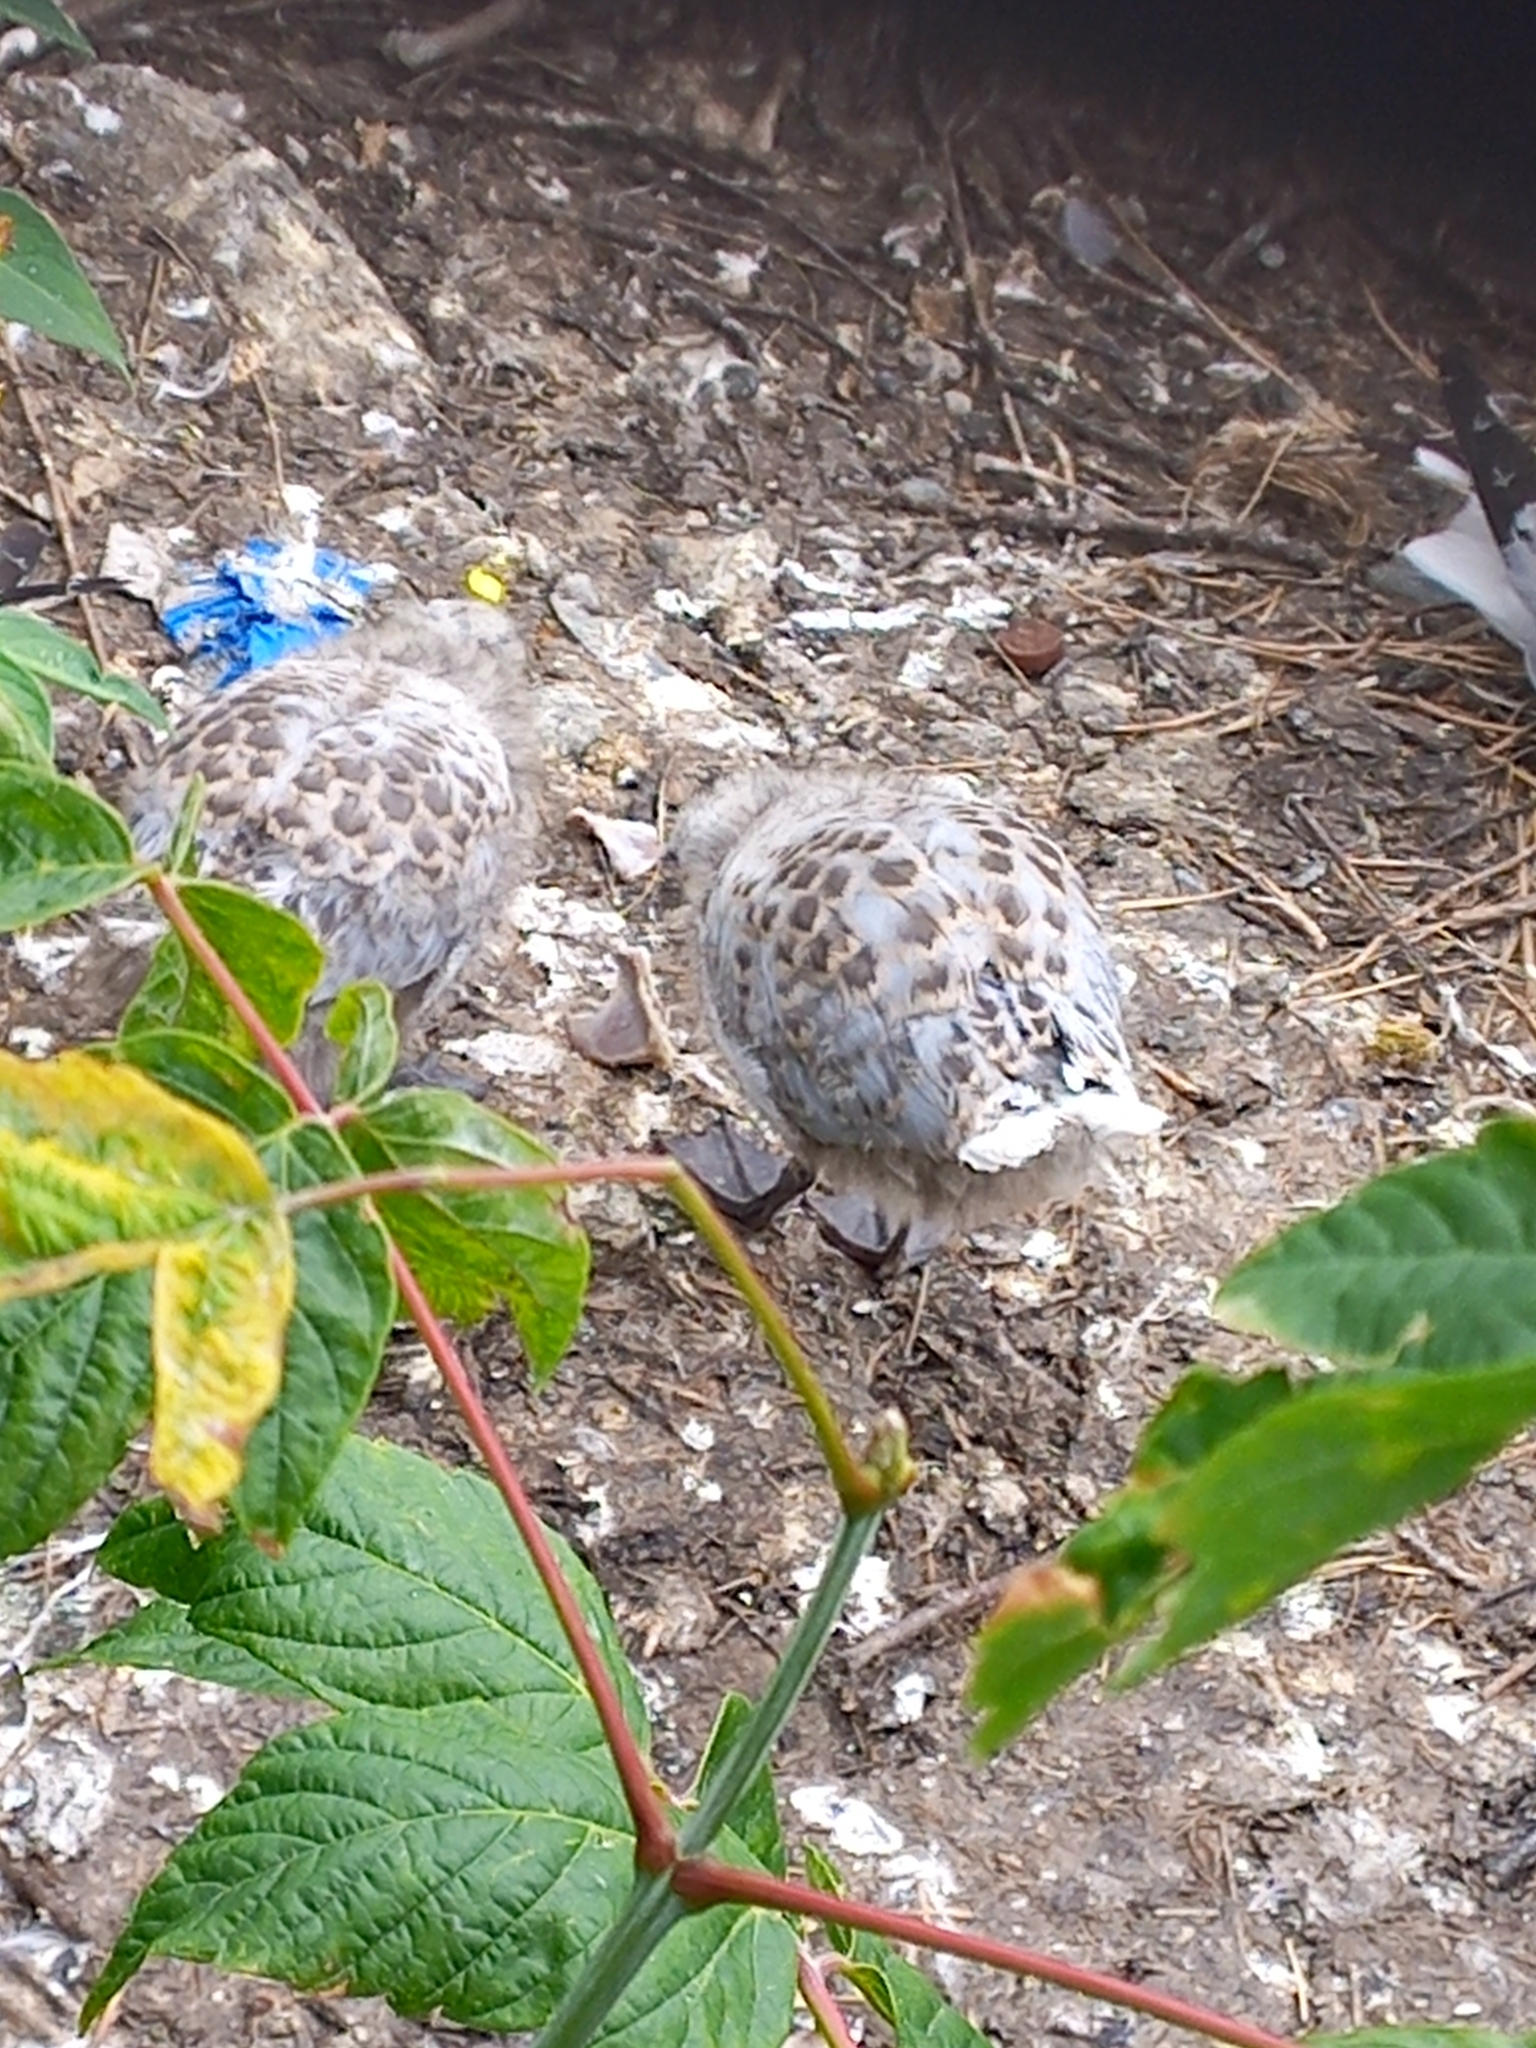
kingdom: Animalia
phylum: Chordata
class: Aves
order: Charadriiformes
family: Laridae
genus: Chroicocephalus
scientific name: Chroicocephalus novaehollandiae
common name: Silver gull
